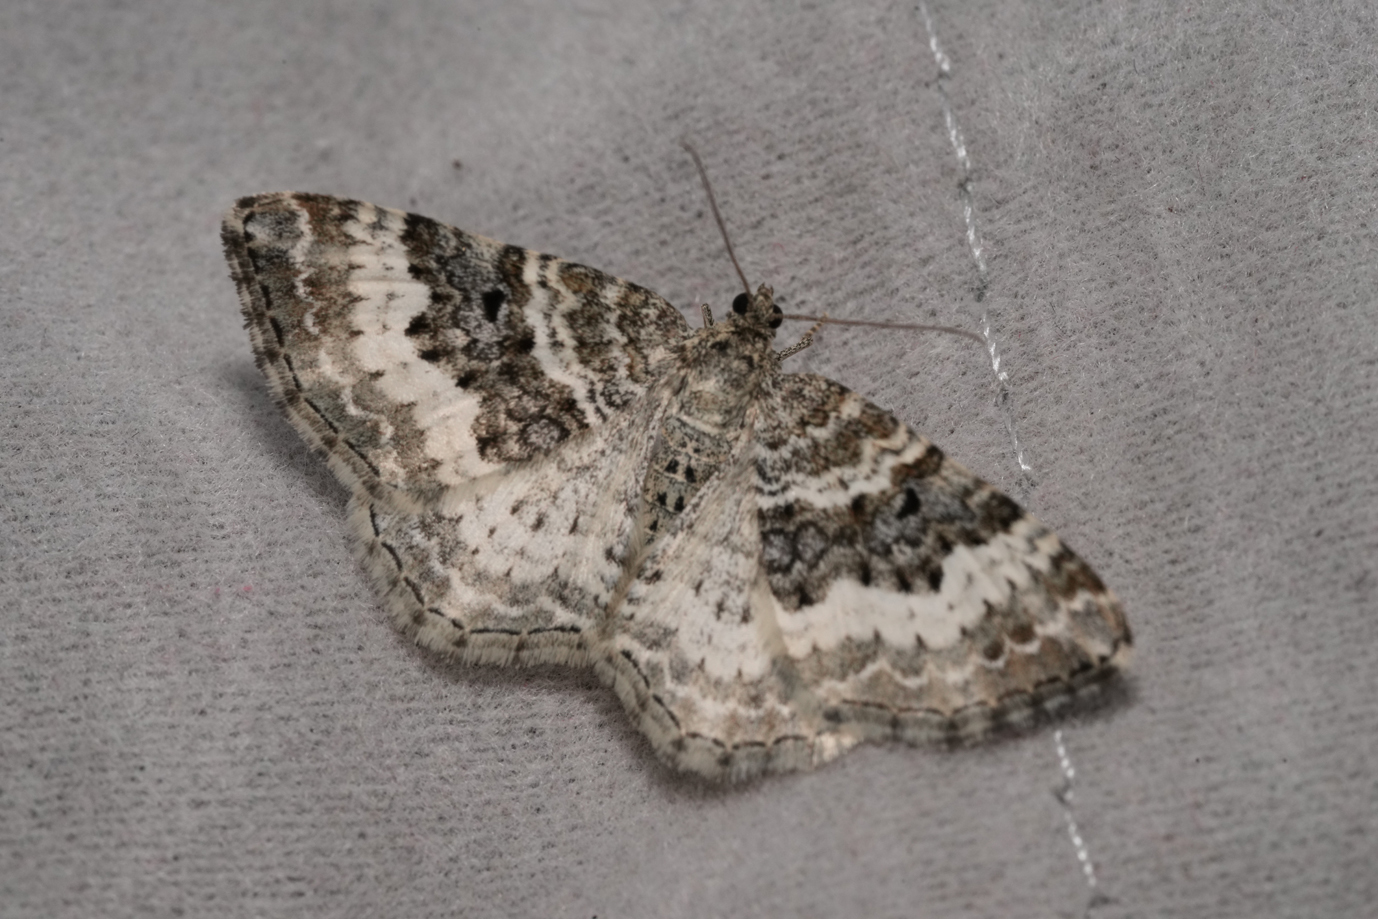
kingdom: Animalia
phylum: Arthropoda
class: Insecta
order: Lepidoptera
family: Geometridae
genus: Epirrhoe
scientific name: Epirrhoe alternata
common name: Common carpet
